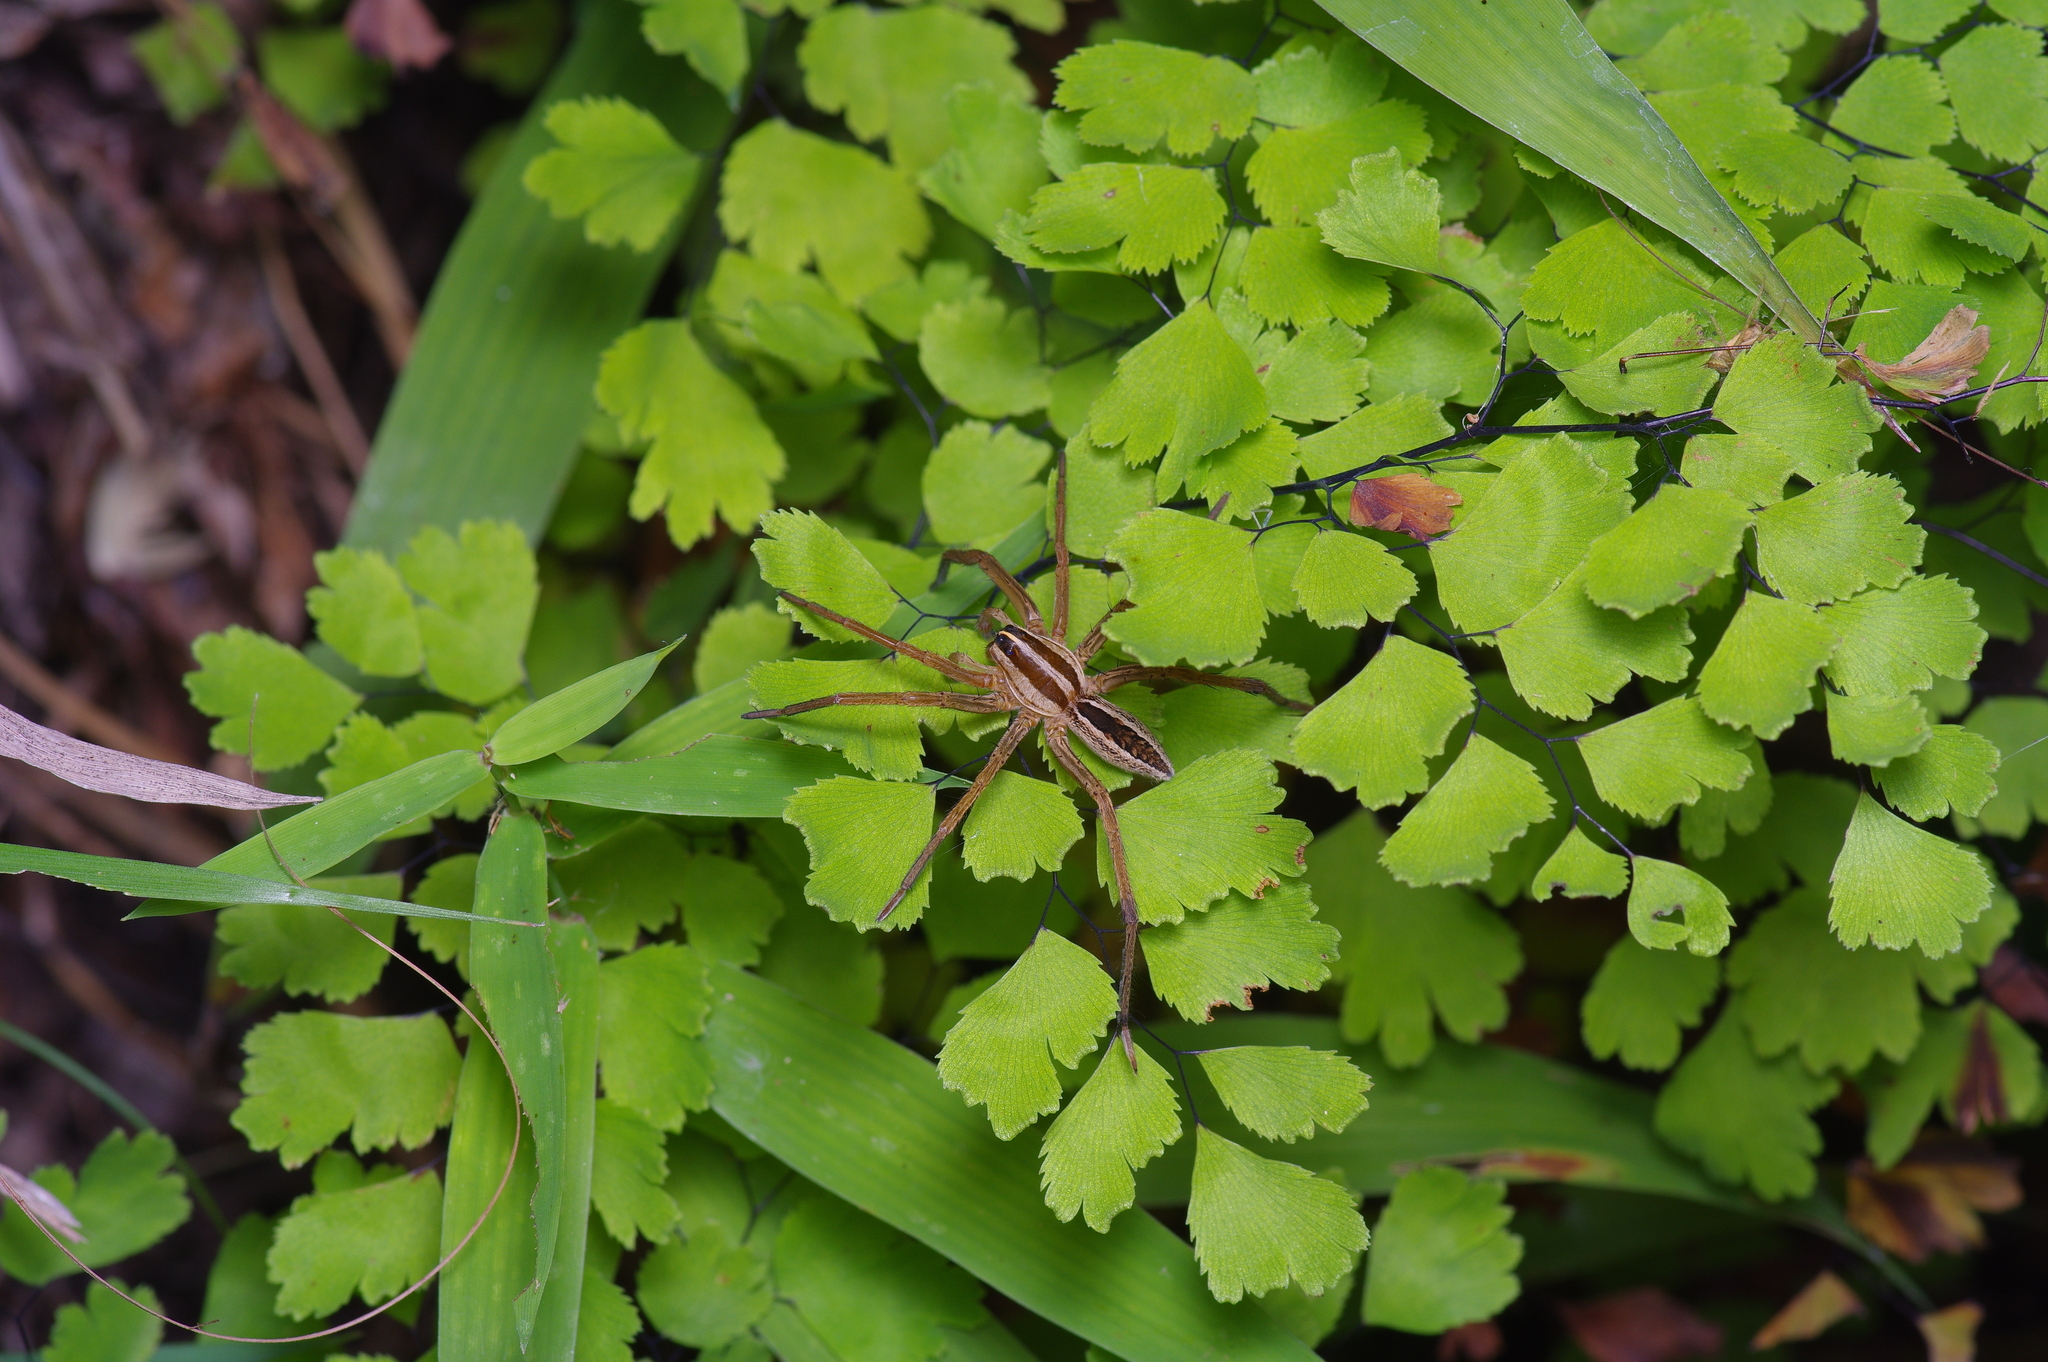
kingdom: Animalia
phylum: Arthropoda
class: Arachnida
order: Araneae
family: Lycosidae
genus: Rabidosa
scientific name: Rabidosa rabida
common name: Rabid wolf spider
